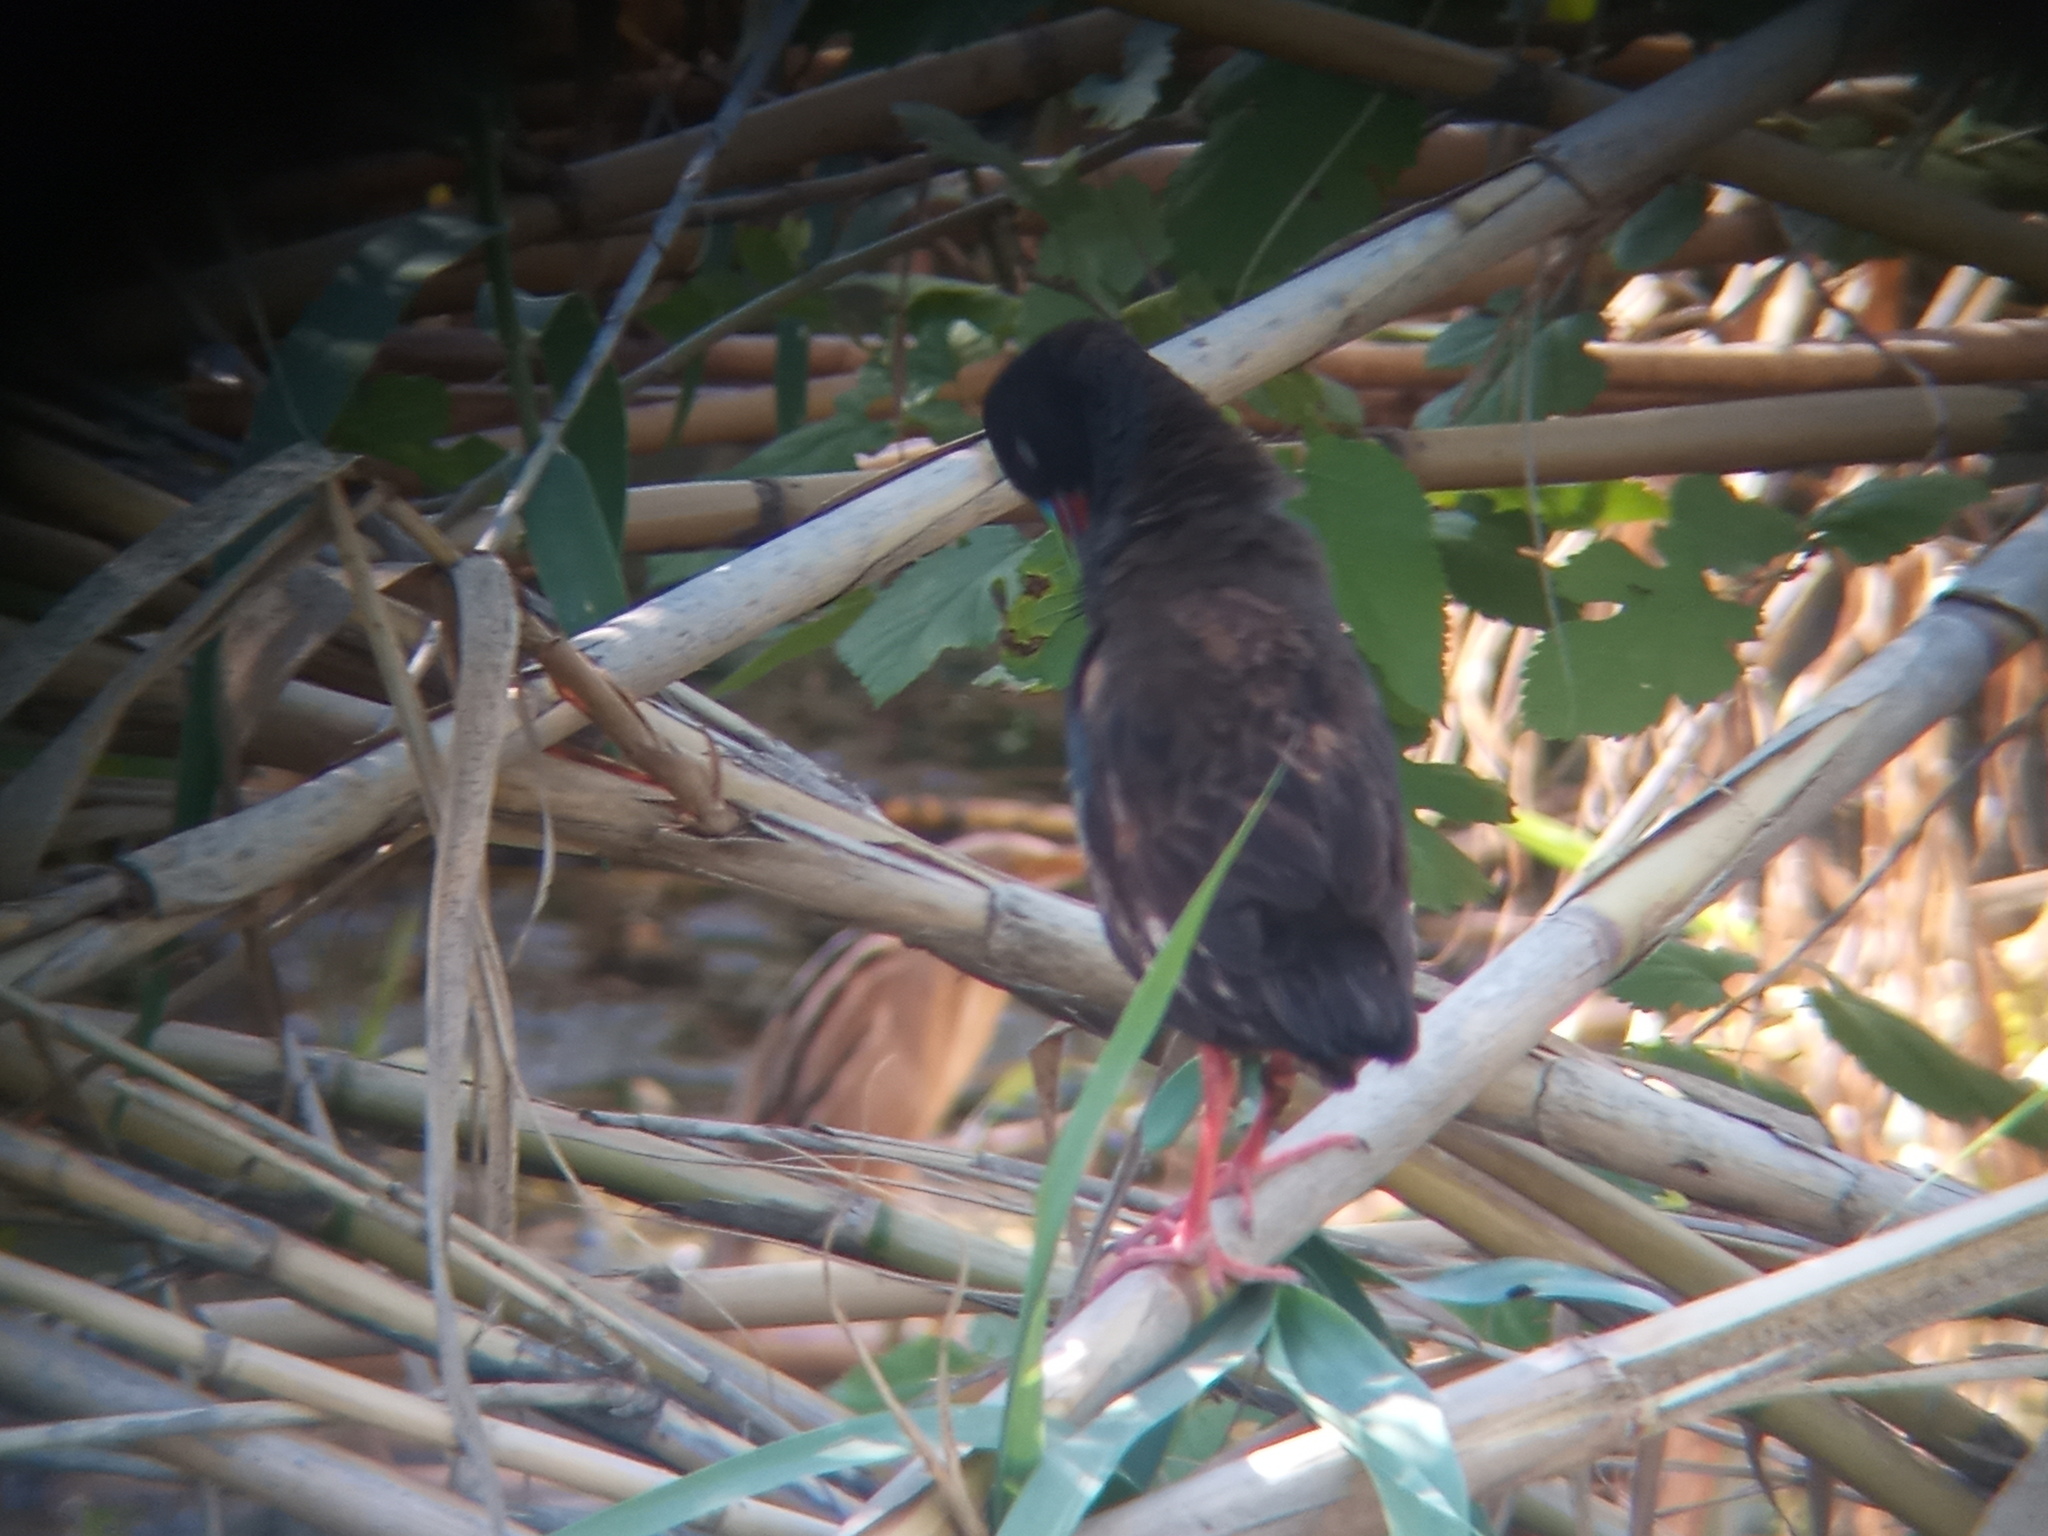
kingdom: Animalia
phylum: Chordata
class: Aves
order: Pelecaniformes
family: Ardeidae
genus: Ixobrychus
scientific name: Ixobrychus involucris
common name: Stripe-backed bittern
